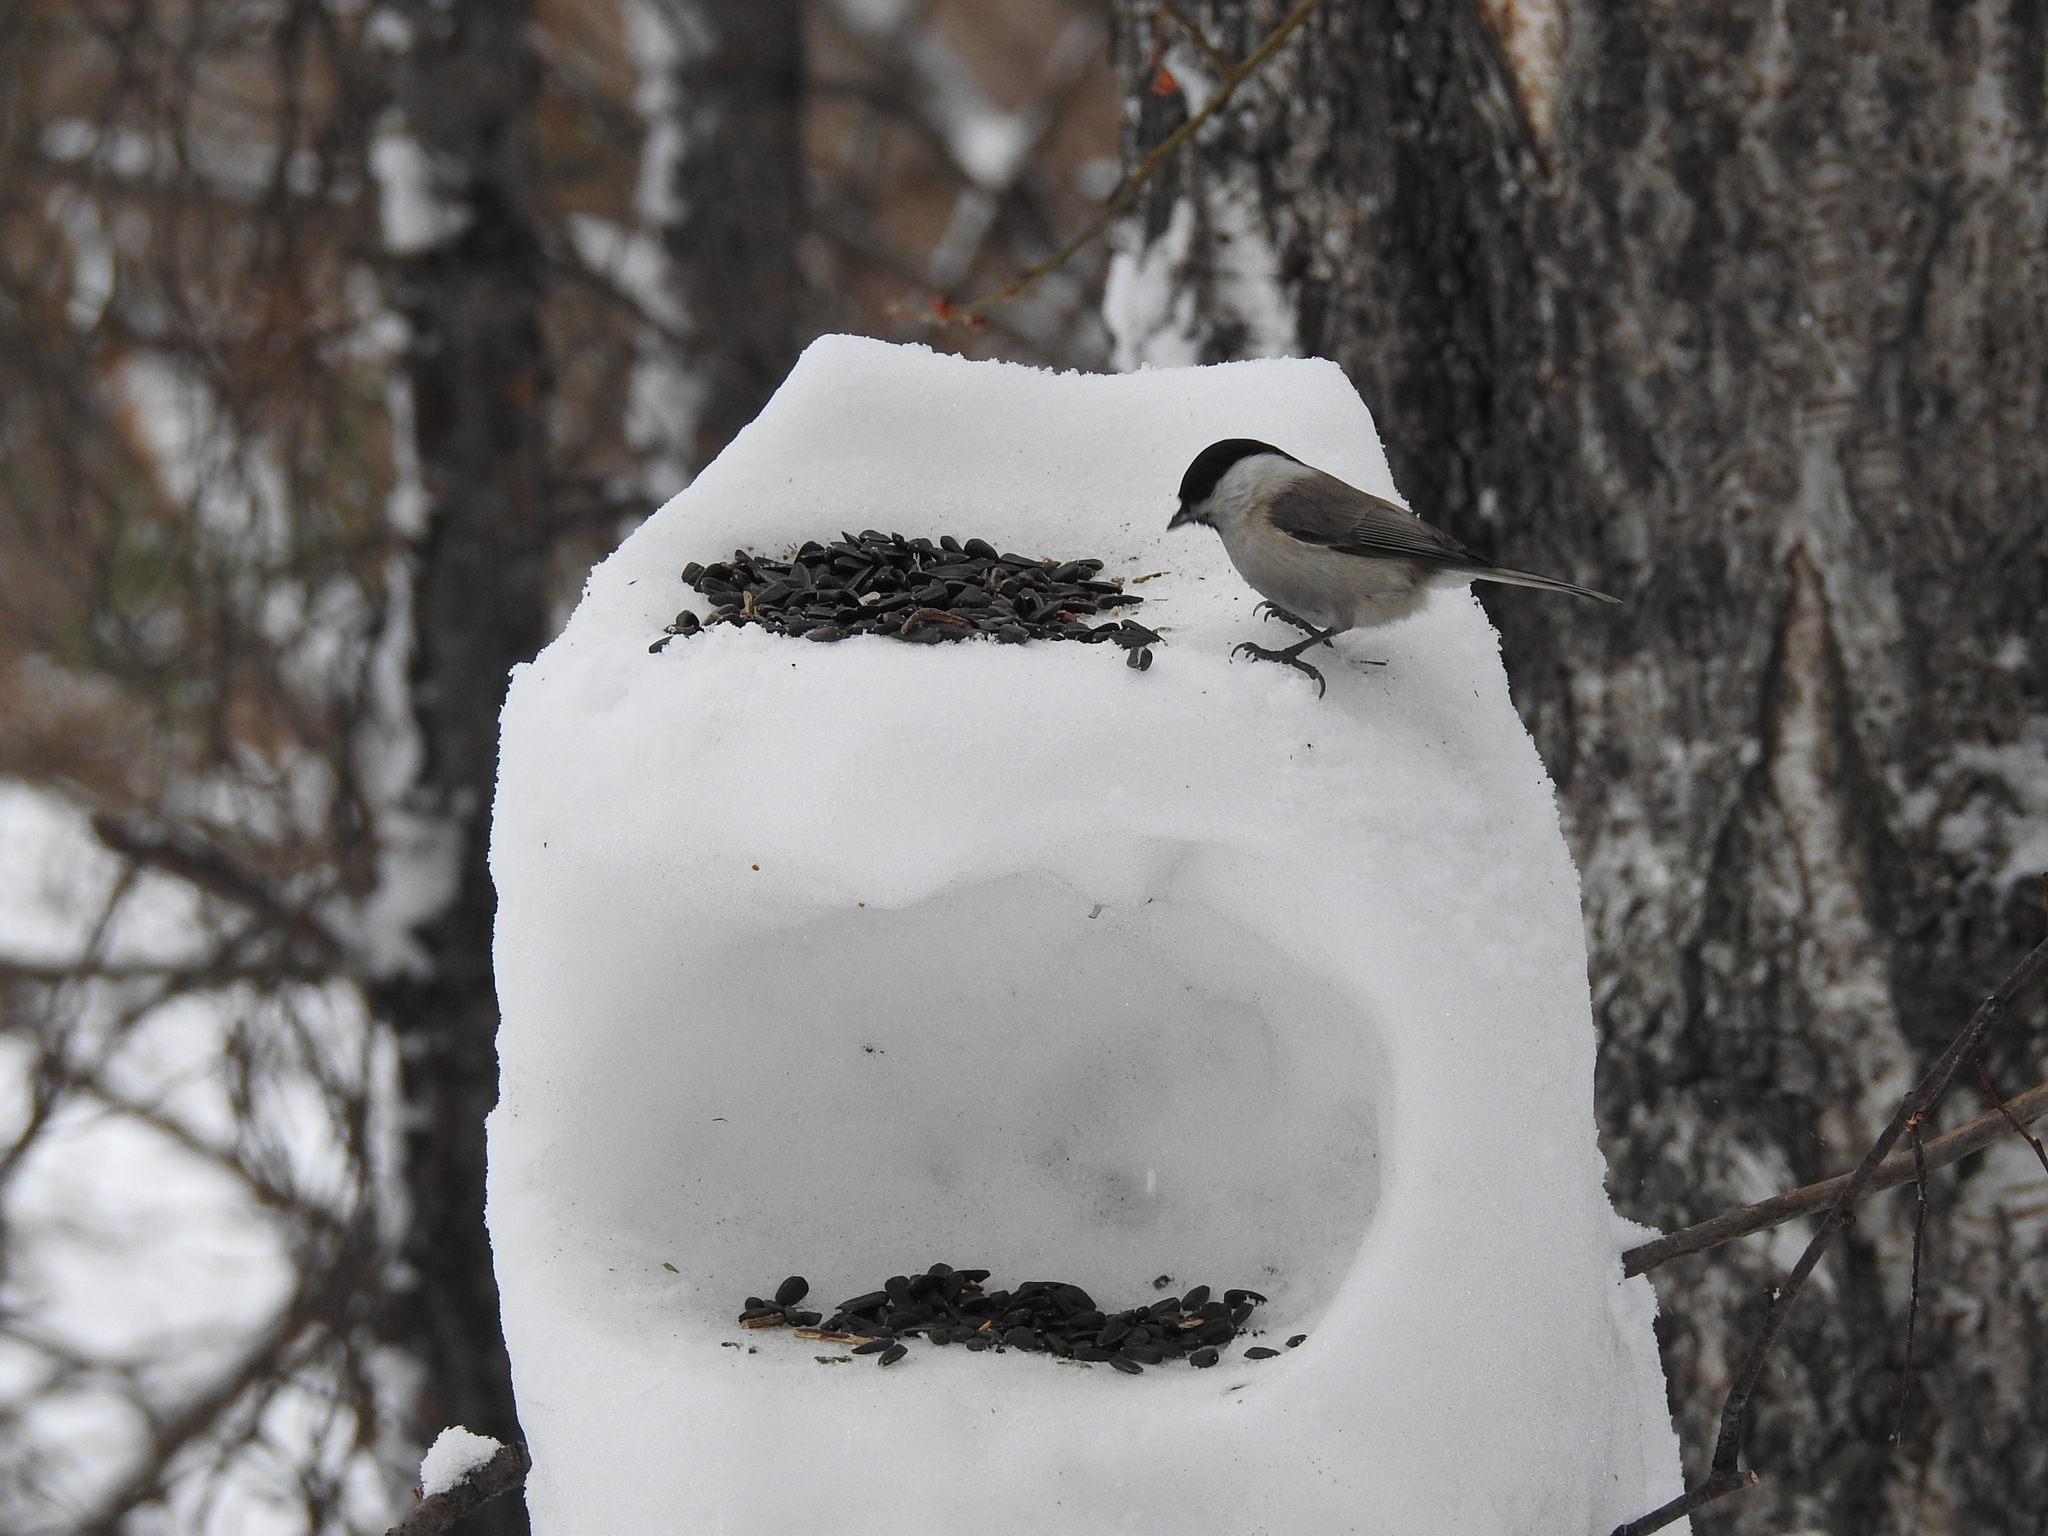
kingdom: Animalia
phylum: Chordata
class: Aves
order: Passeriformes
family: Paridae
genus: Poecile
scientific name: Poecile palustris
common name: Marsh tit
